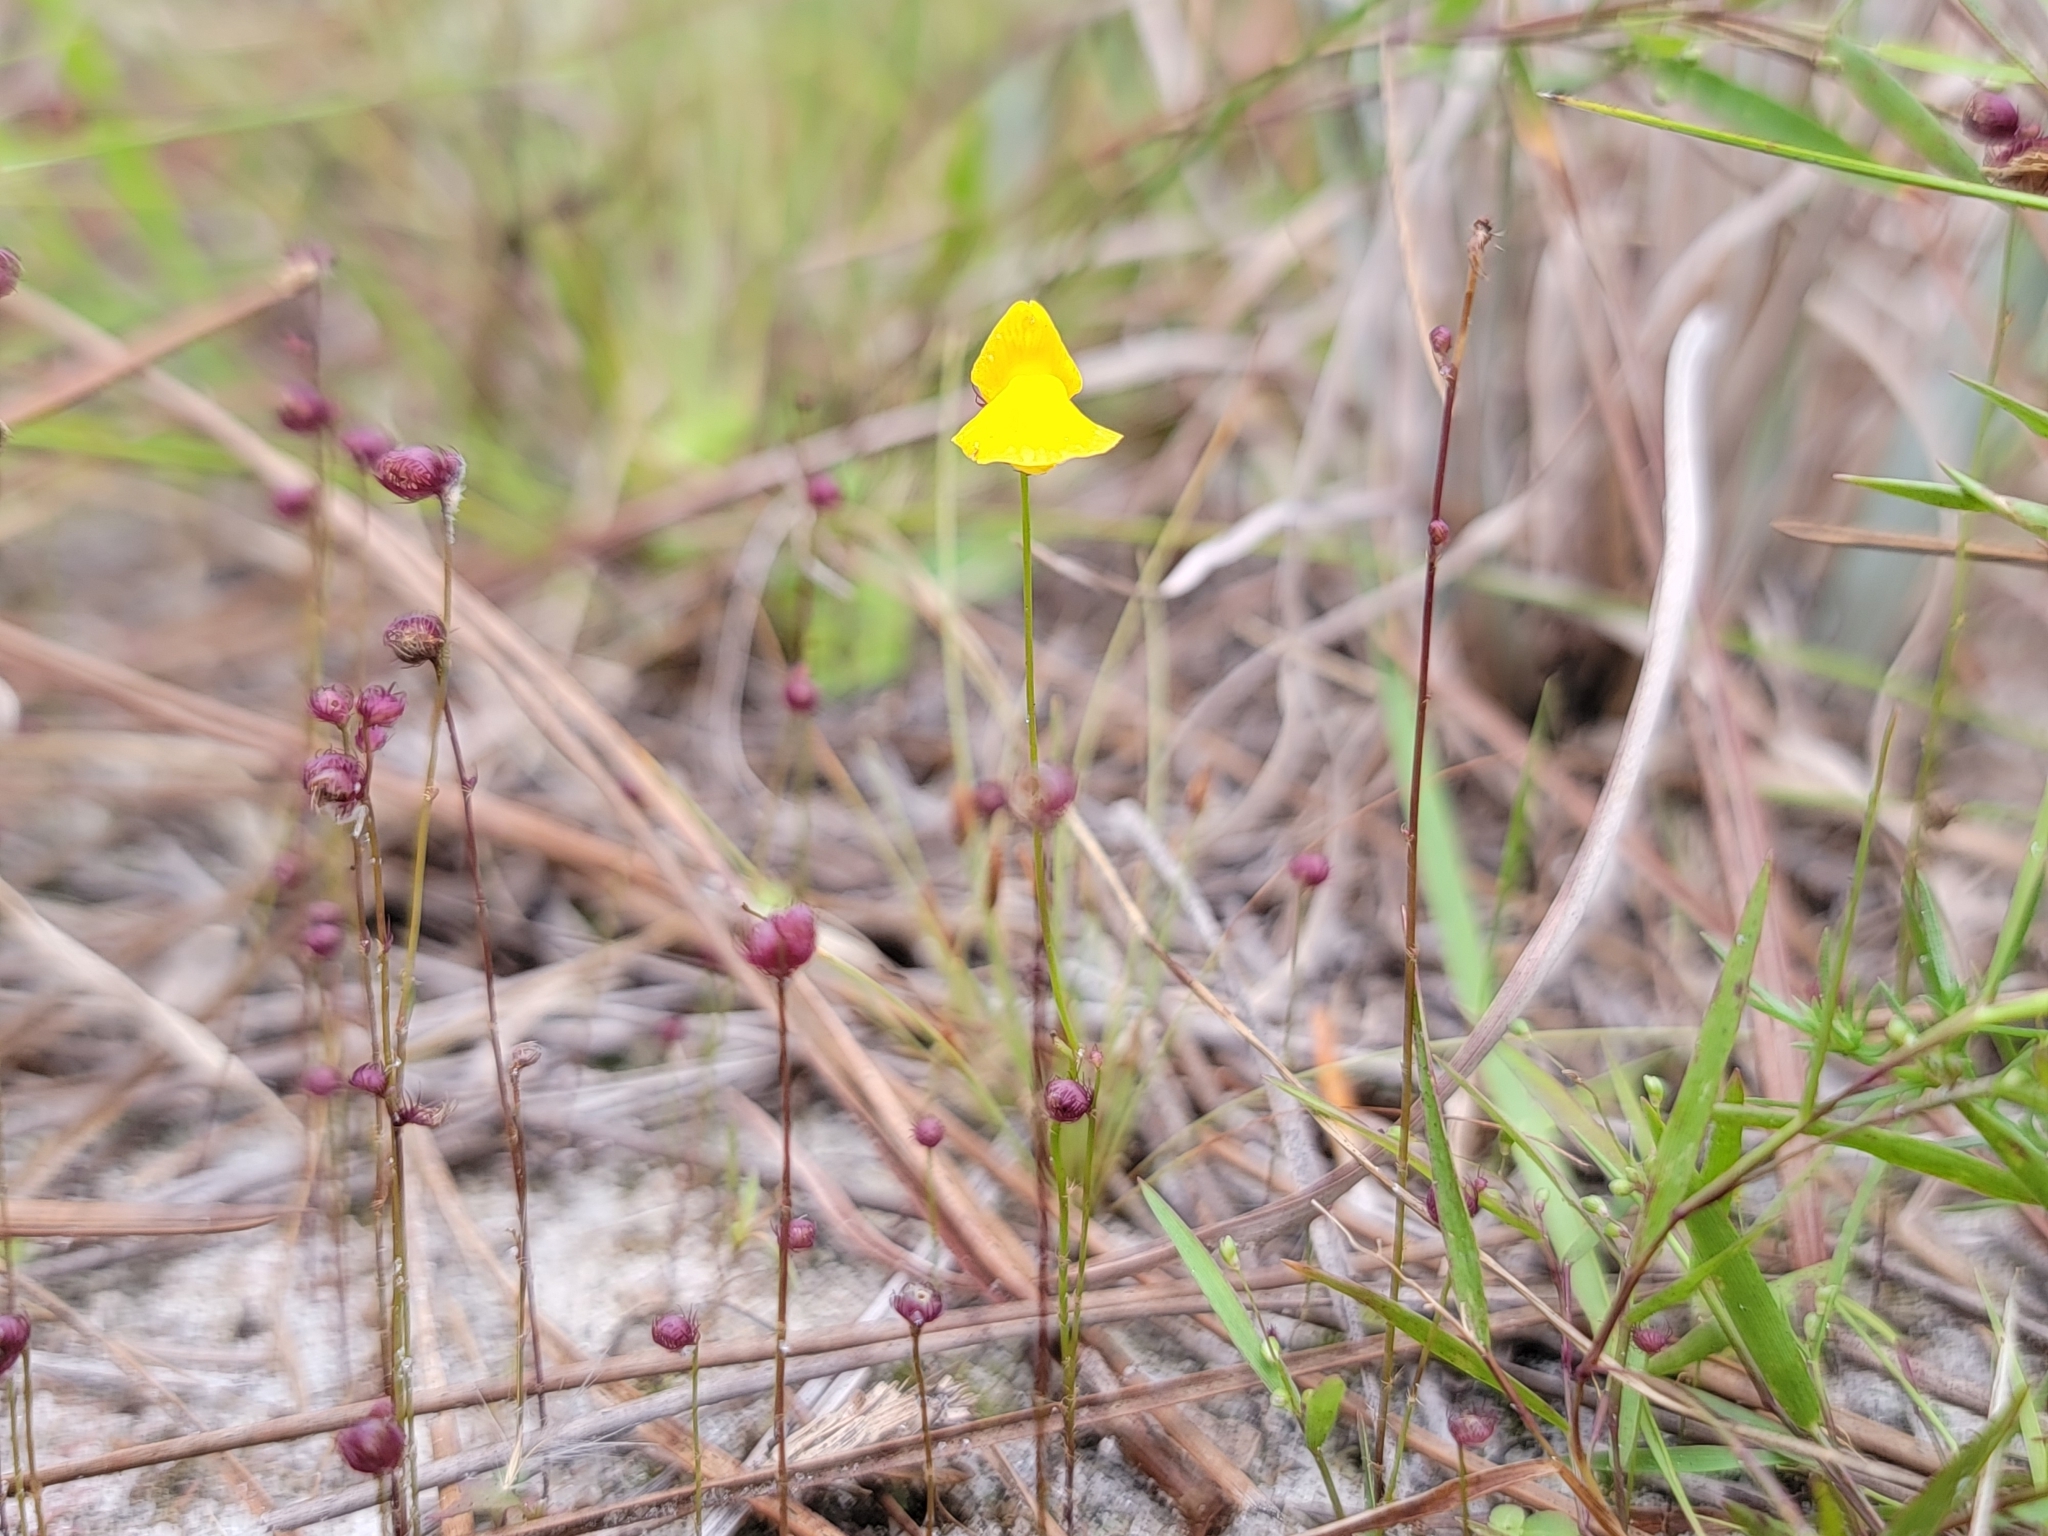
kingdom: Plantae
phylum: Tracheophyta
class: Magnoliopsida
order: Lamiales
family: Lentibulariaceae
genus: Utricularia
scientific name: Utricularia simulans
